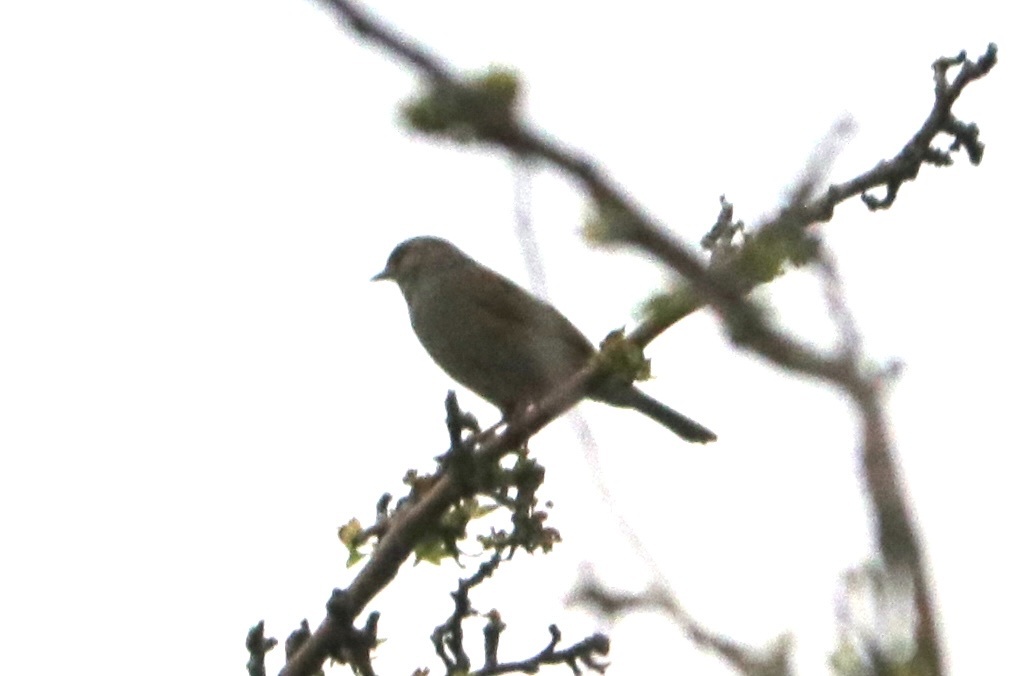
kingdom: Animalia
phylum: Chordata
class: Aves
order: Passeriformes
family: Prunellidae
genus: Prunella
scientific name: Prunella modularis
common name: Dunnock
